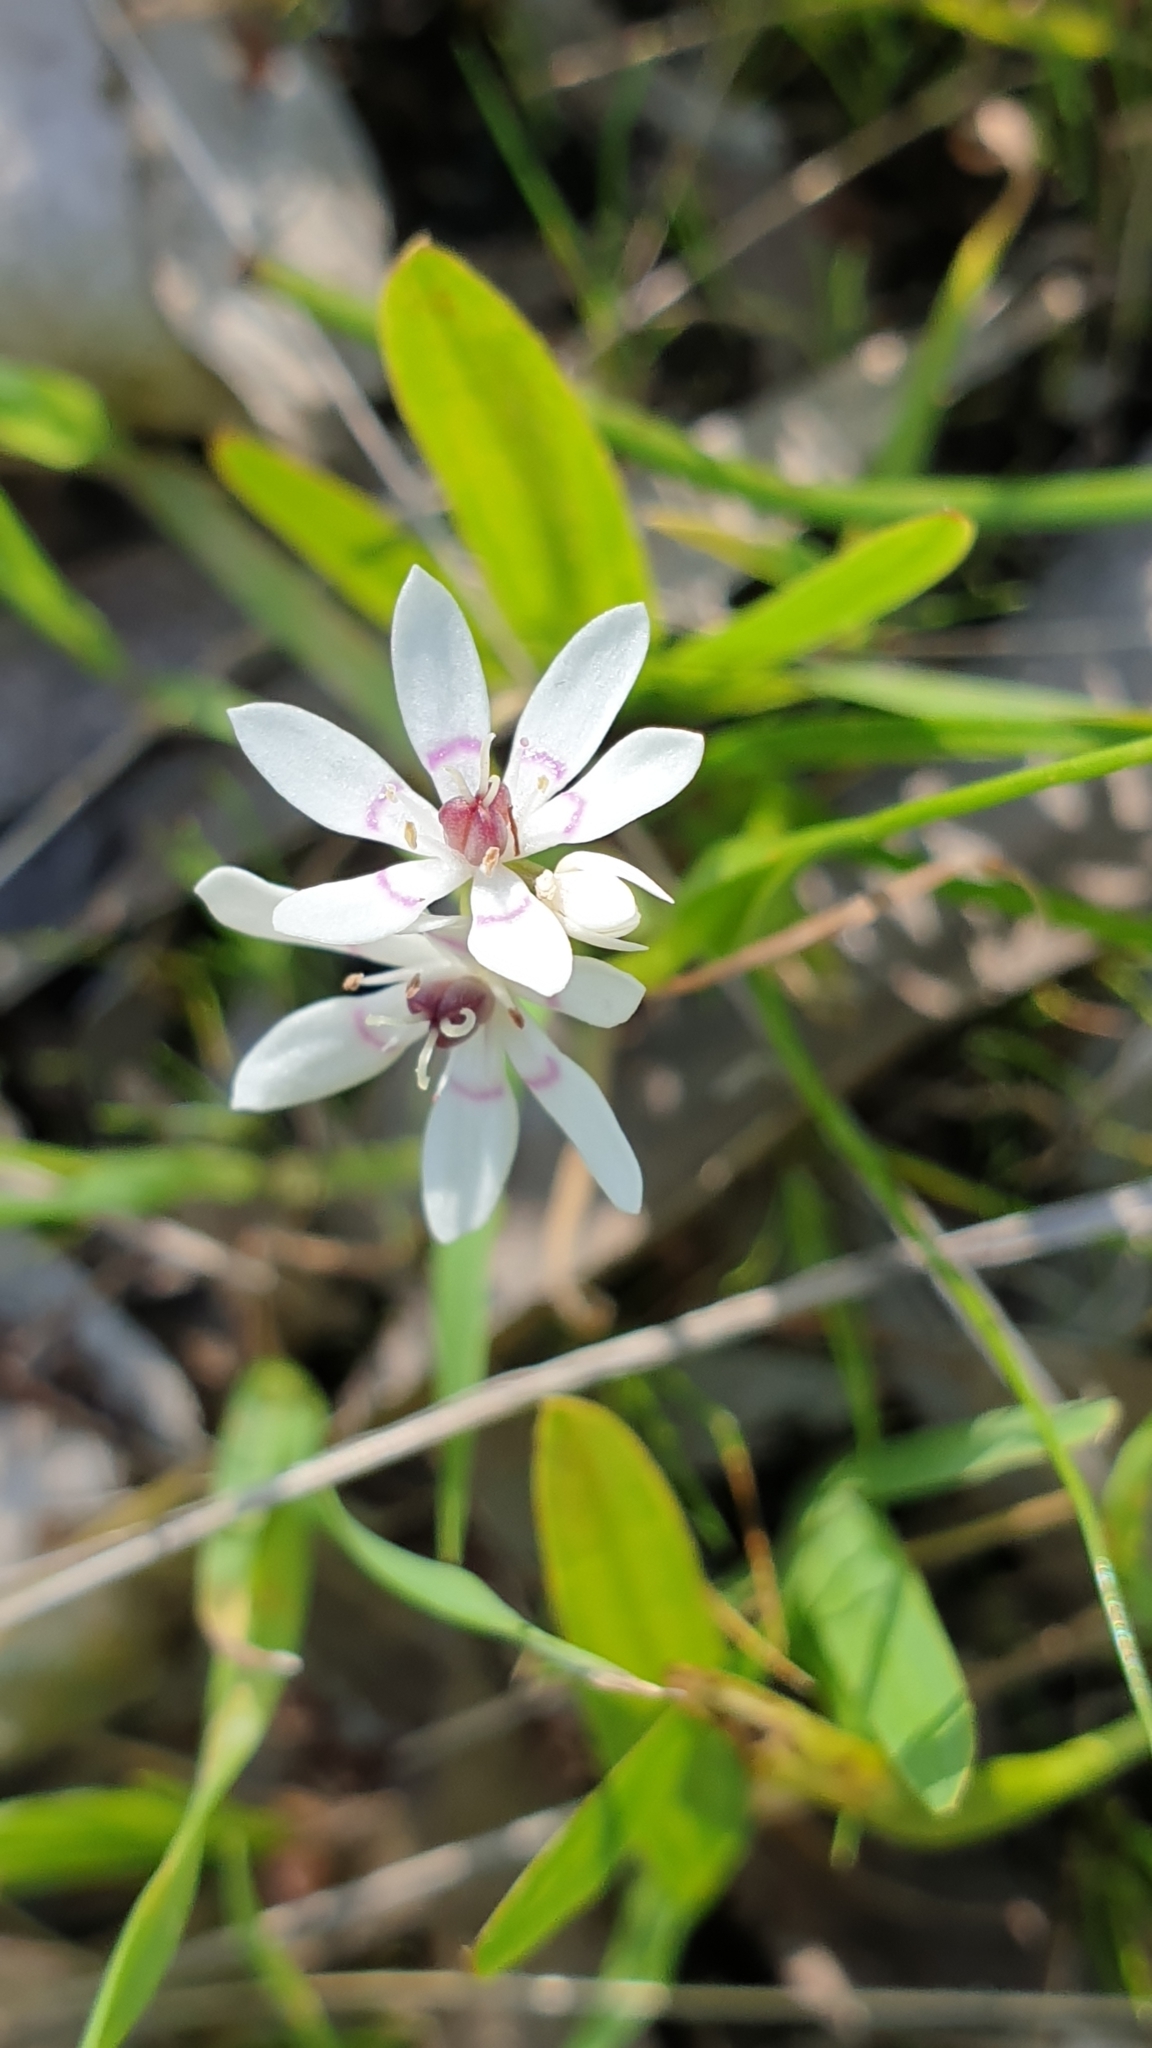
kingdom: Plantae
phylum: Tracheophyta
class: Liliopsida
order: Liliales
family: Colchicaceae
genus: Wurmbea
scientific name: Wurmbea dioica
